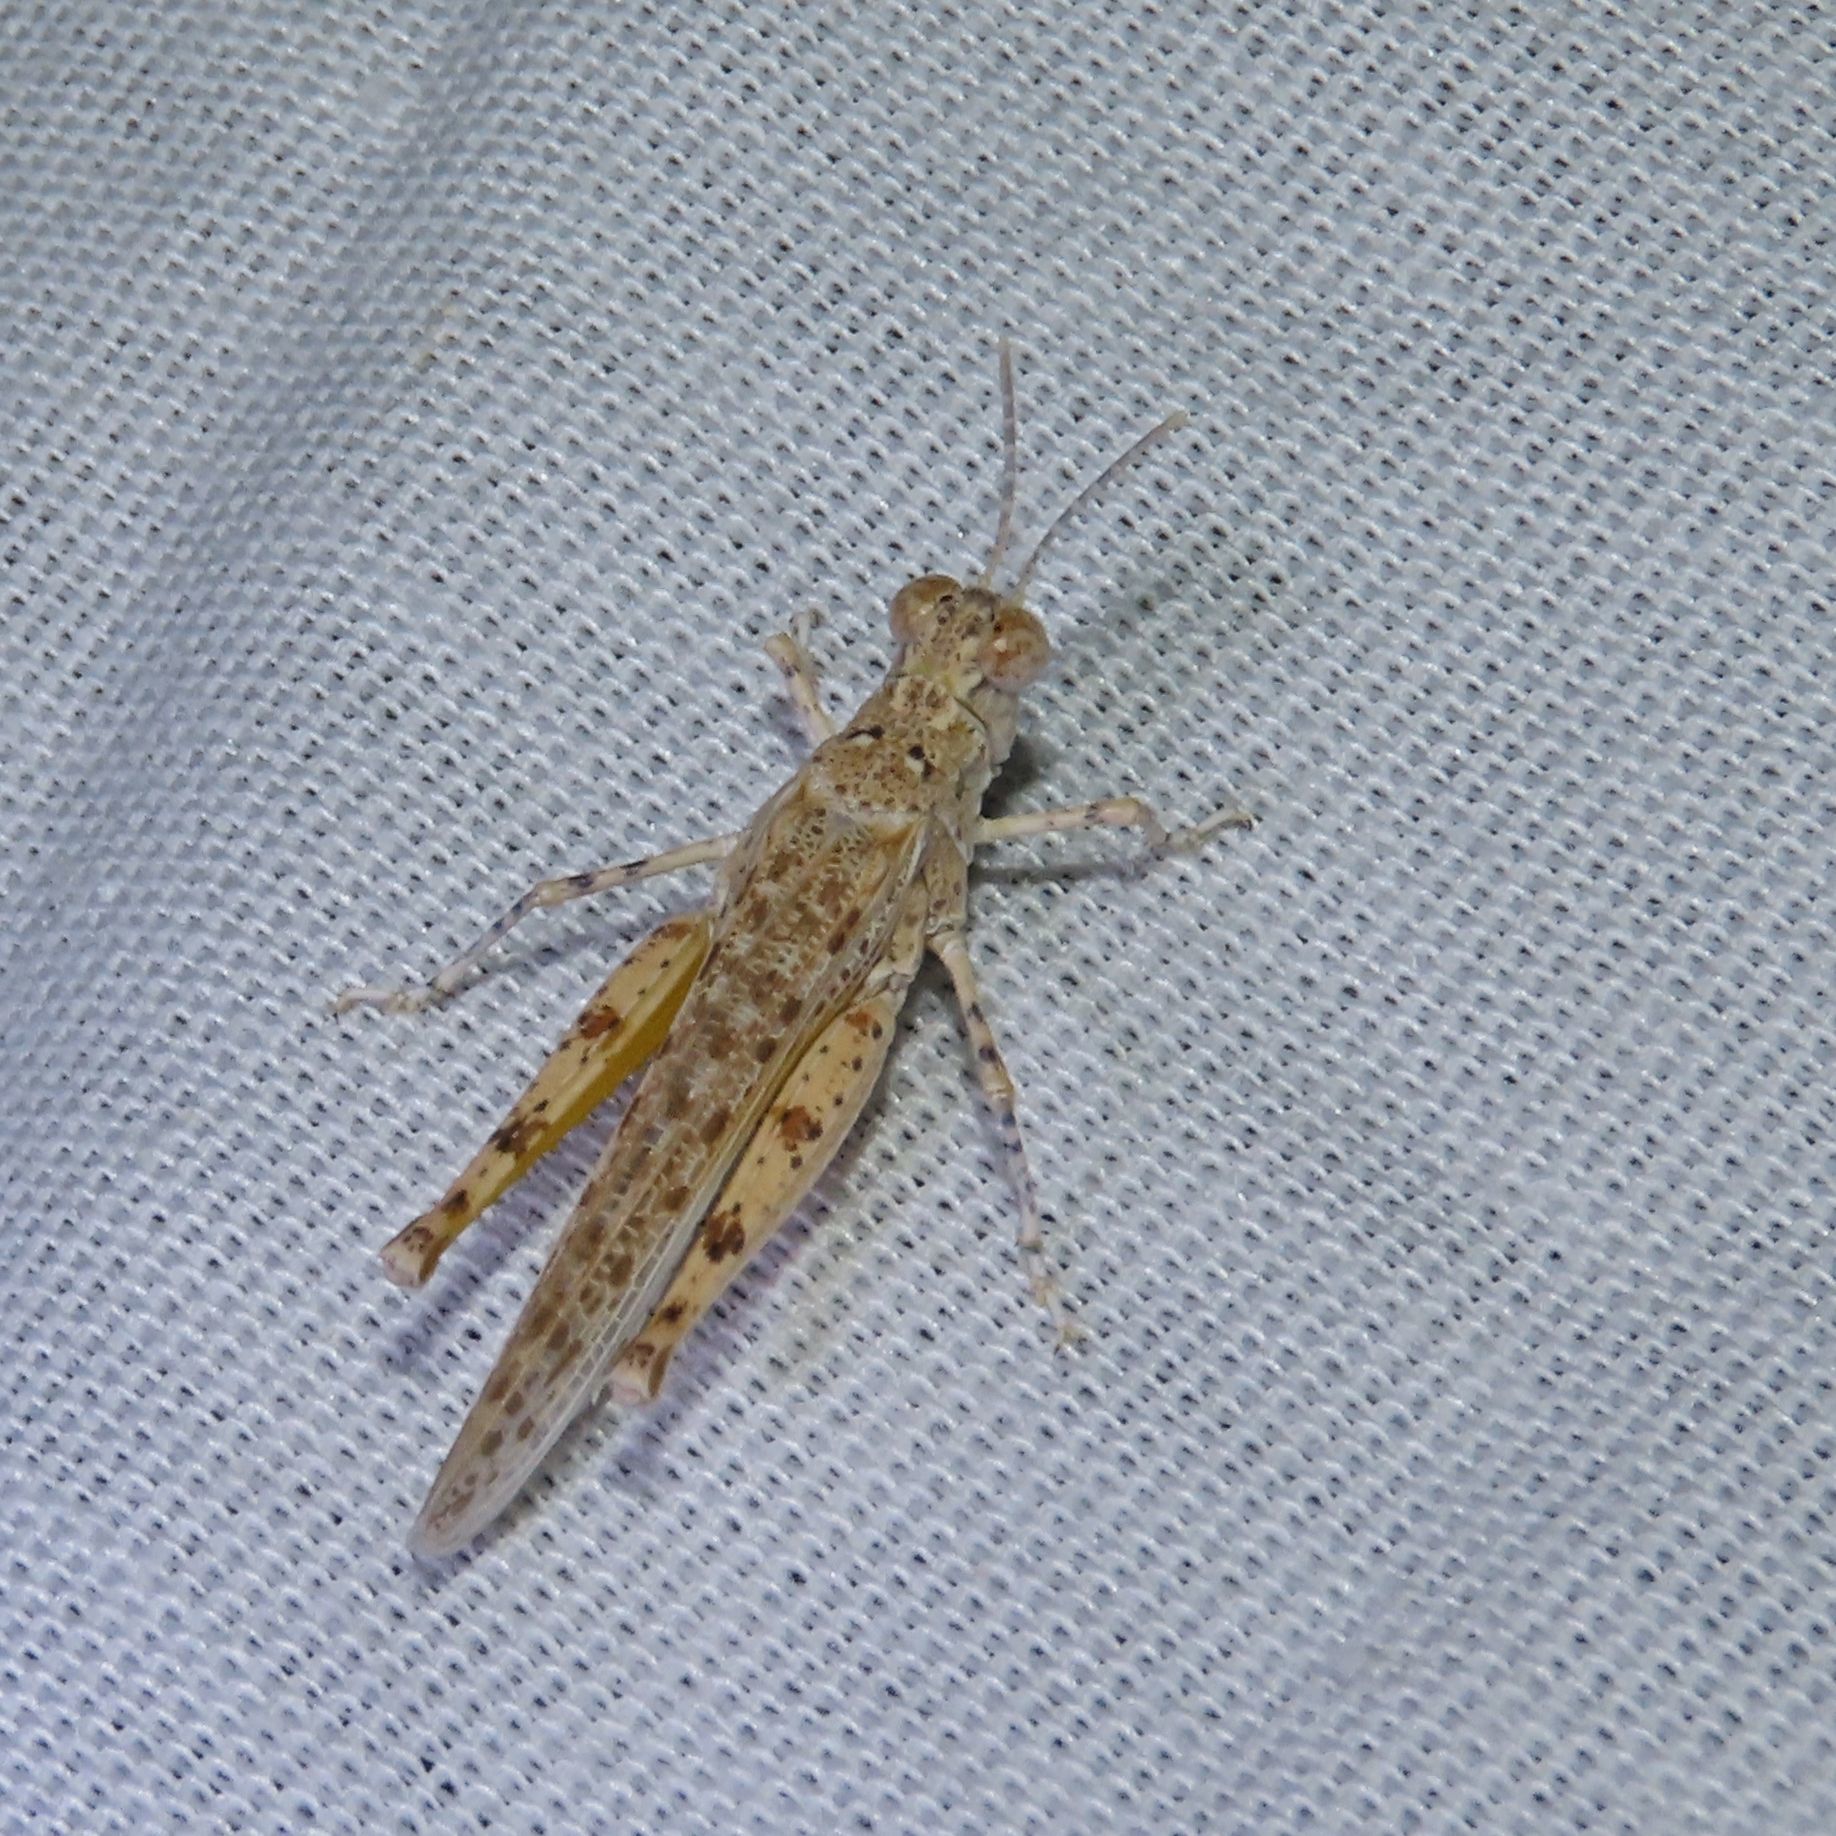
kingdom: Animalia
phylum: Arthropoda
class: Insecta
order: Orthoptera
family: Acrididae
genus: Xeracris
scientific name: Xeracris snowi
